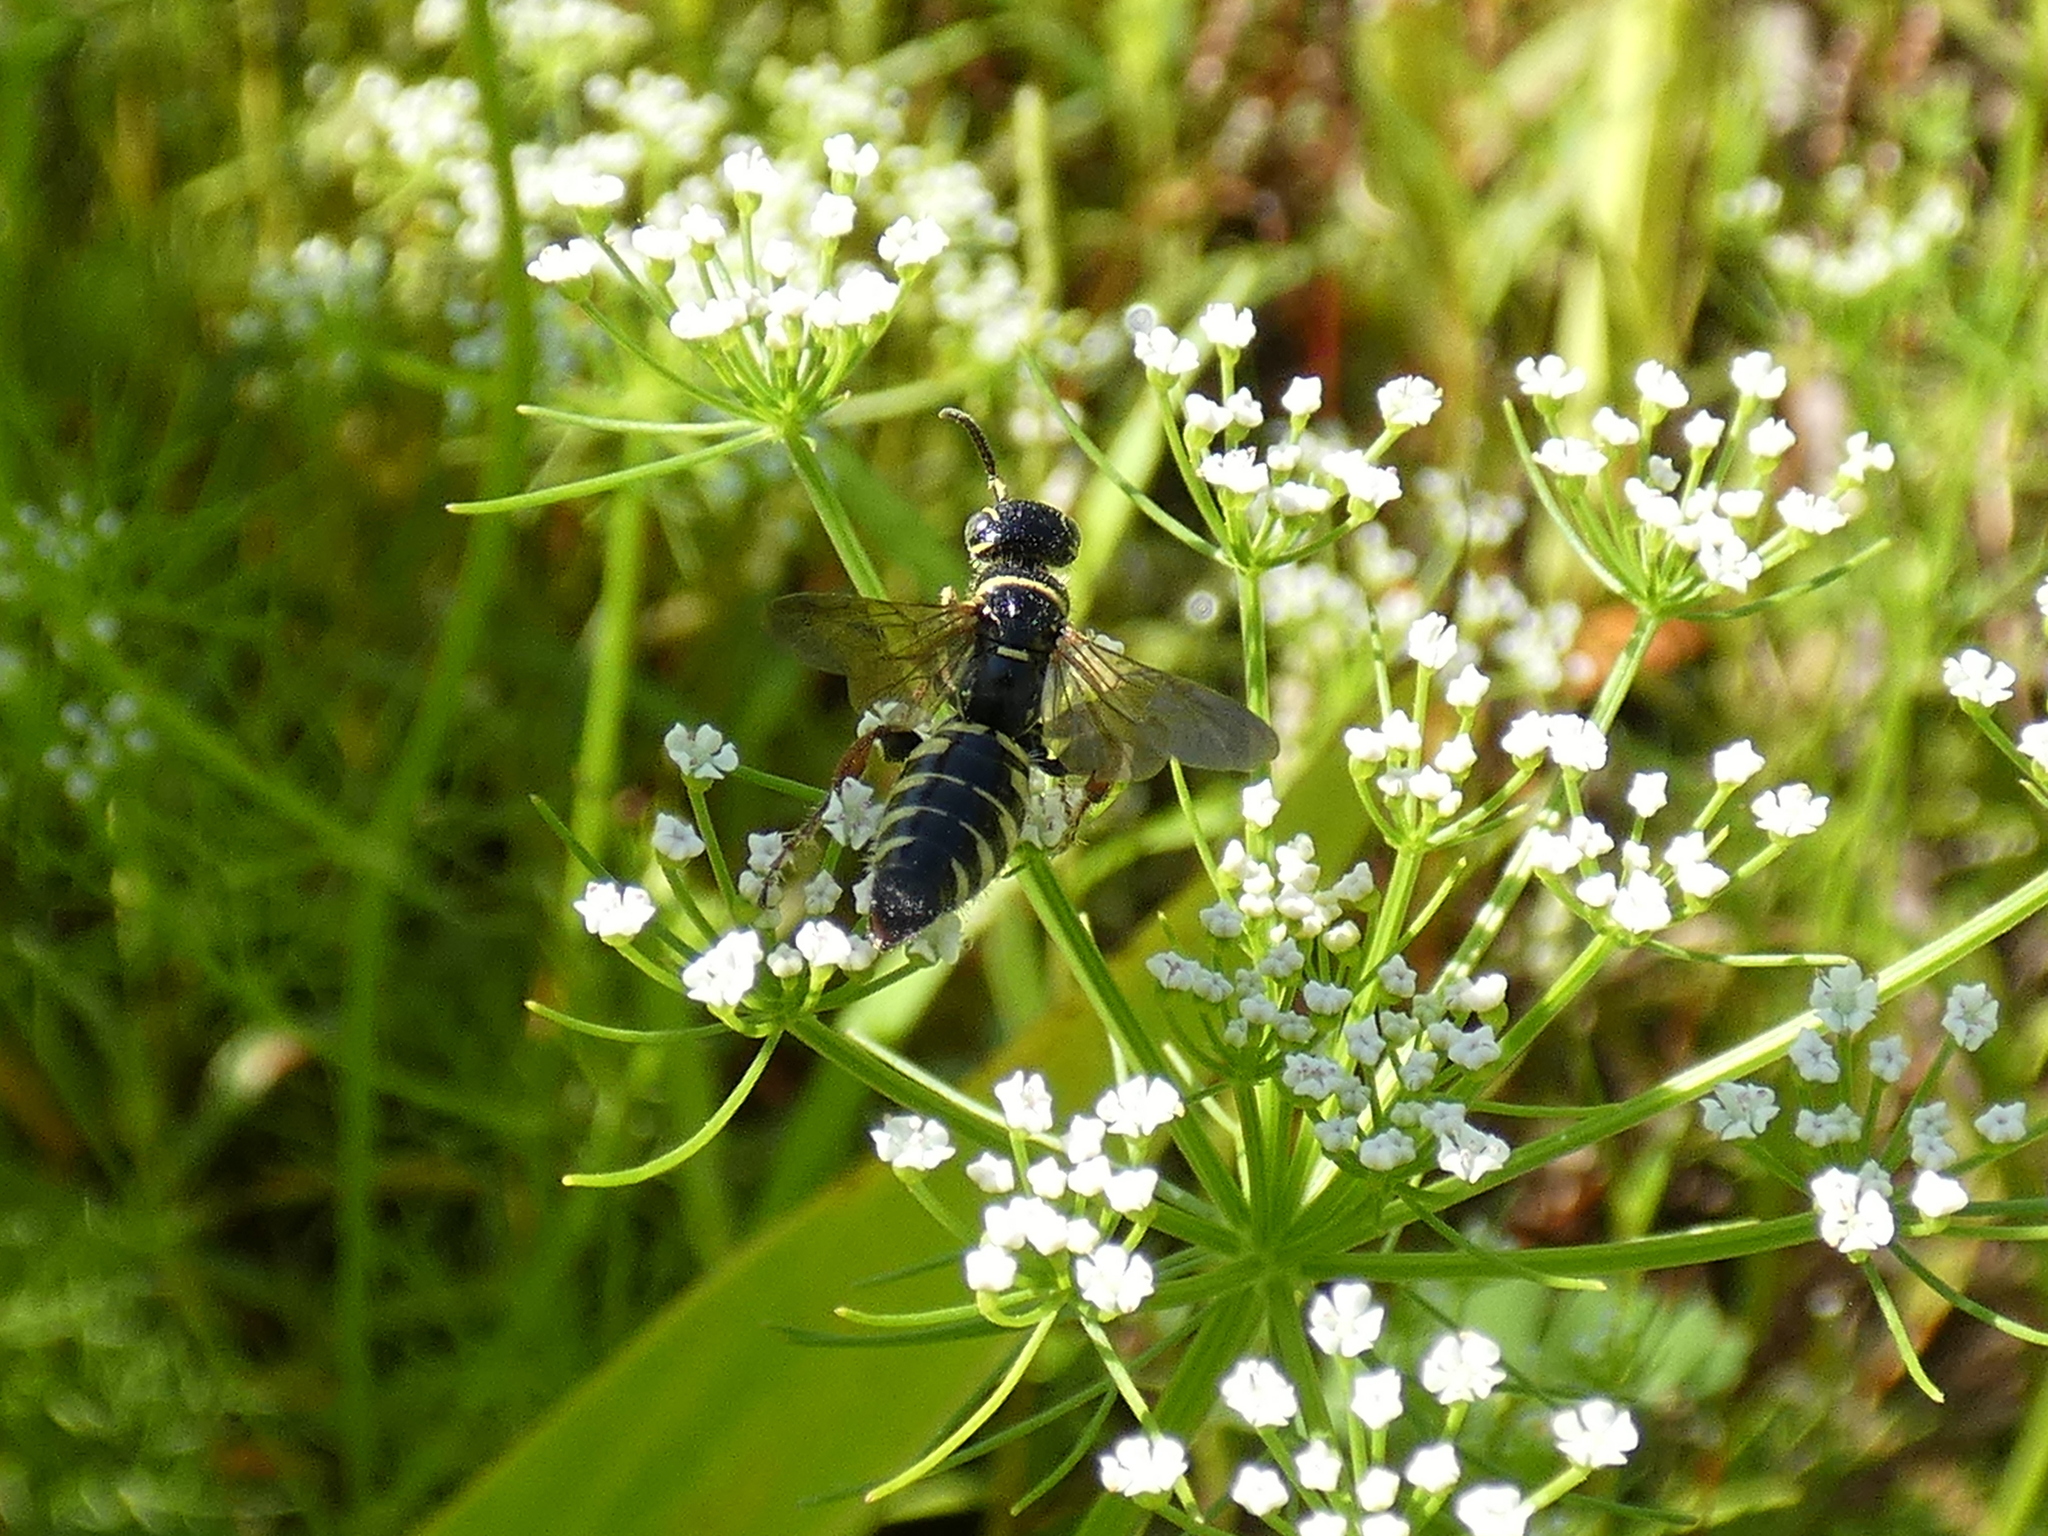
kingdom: Animalia
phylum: Arthropoda
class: Insecta
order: Hymenoptera
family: Tiphiidae
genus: Myzinum
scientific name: Myzinum carolinianum
